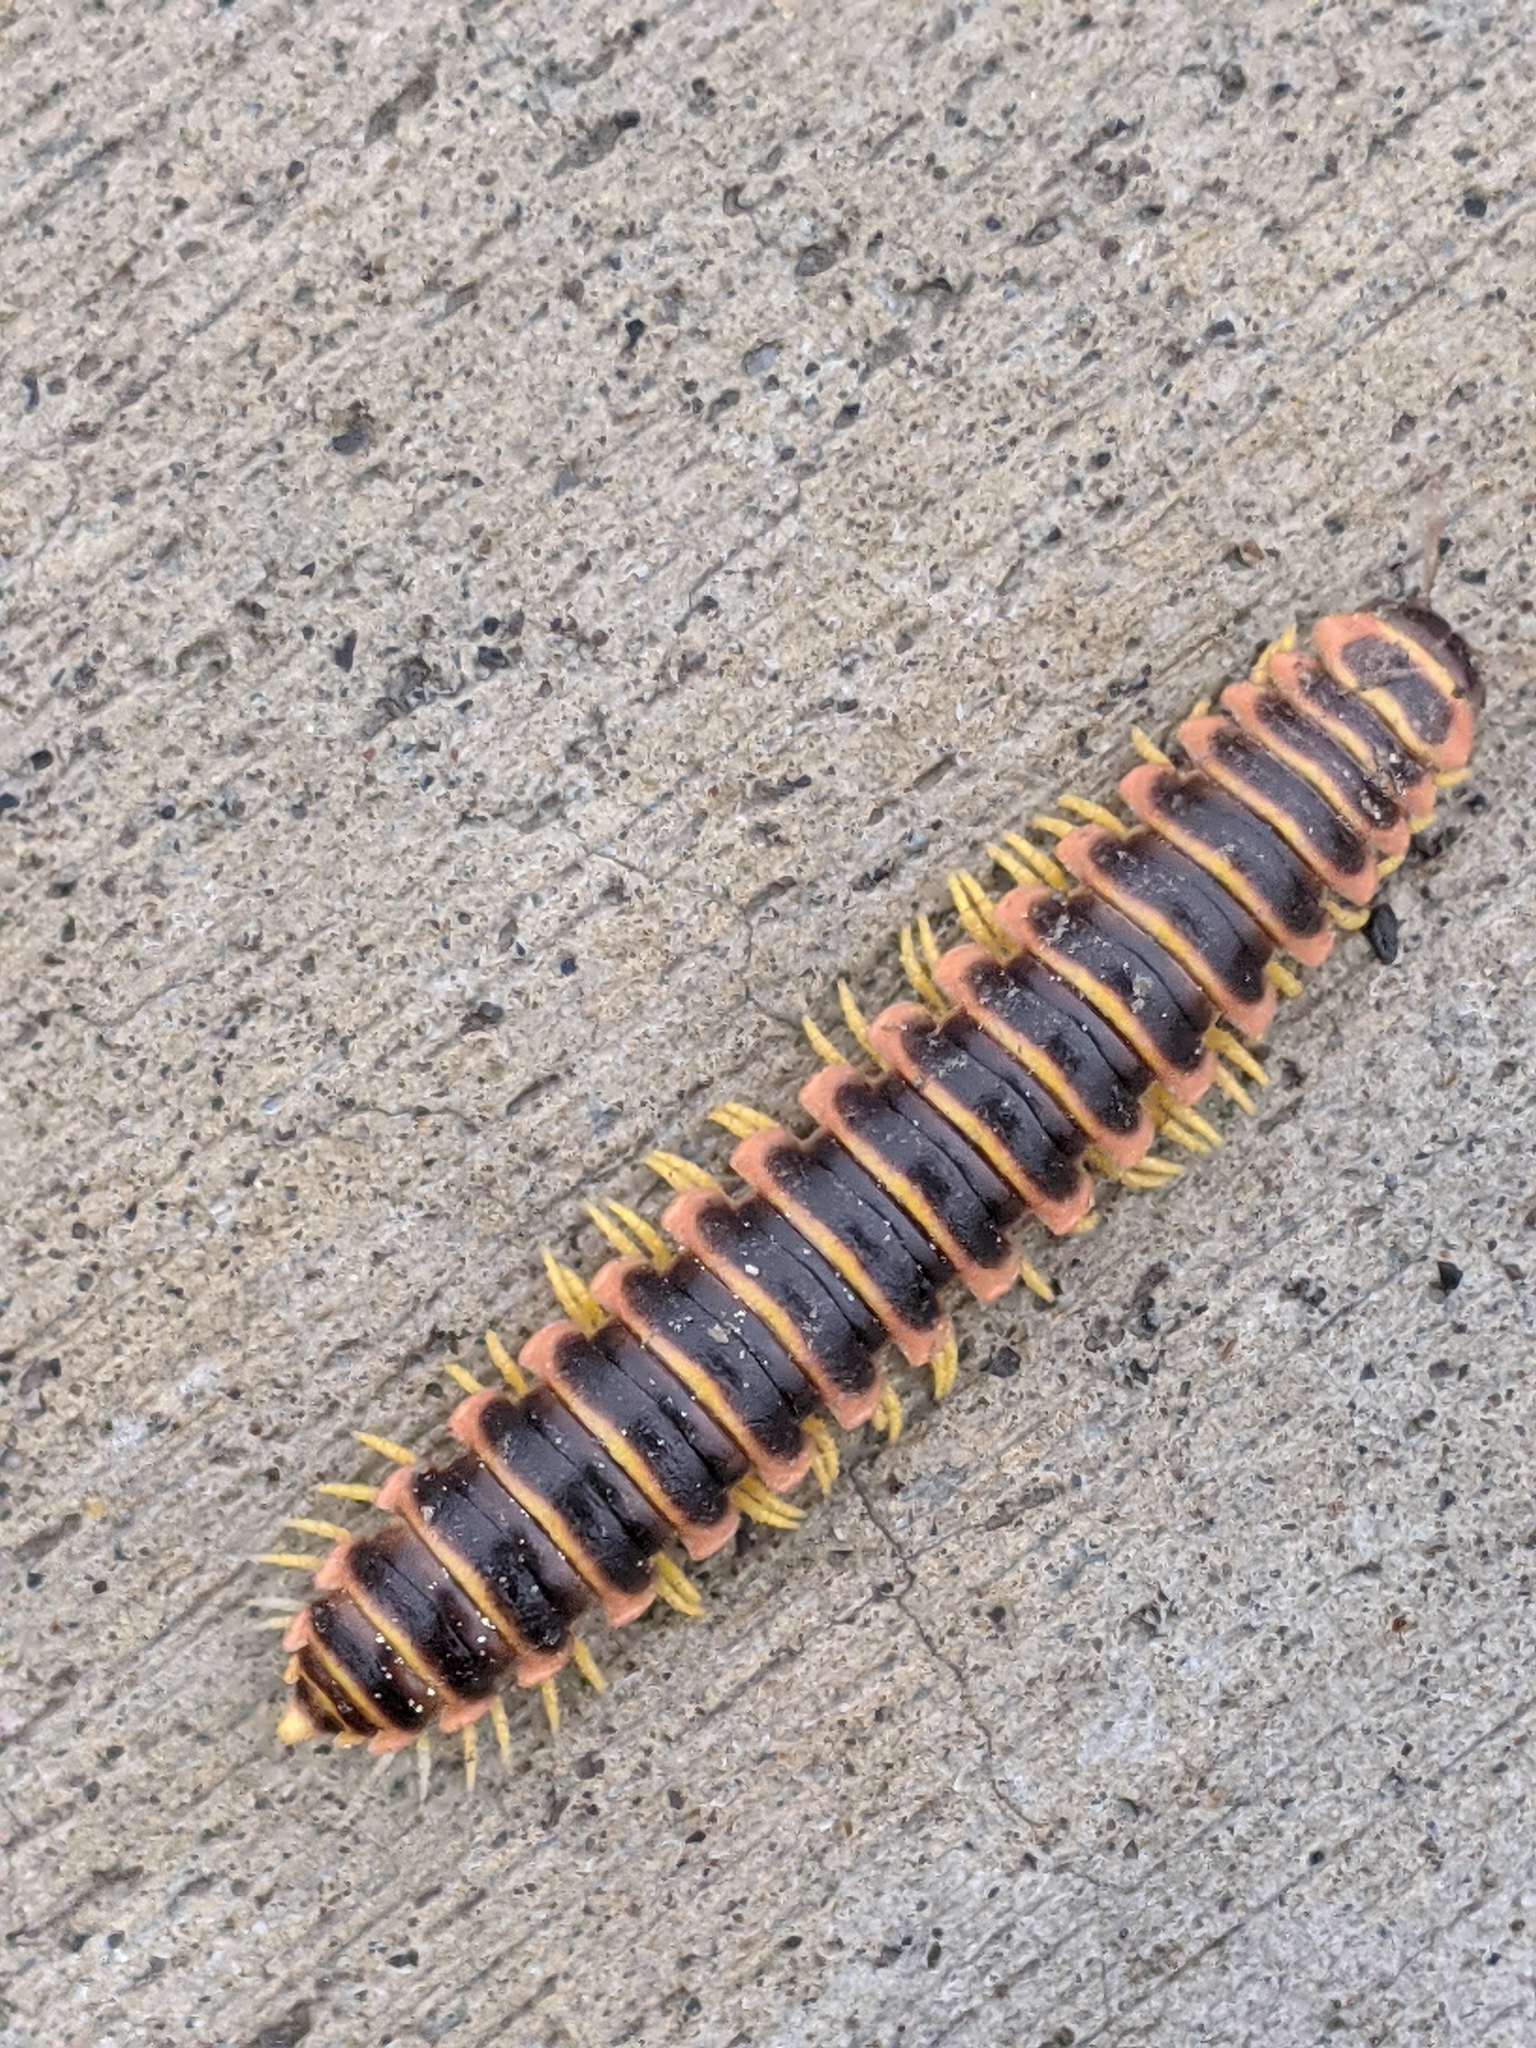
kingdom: Animalia
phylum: Arthropoda
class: Diplopoda
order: Polydesmida
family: Xystodesmidae
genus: Apheloria
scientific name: Apheloria virginiensis
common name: Black-and-gold flat millipede
